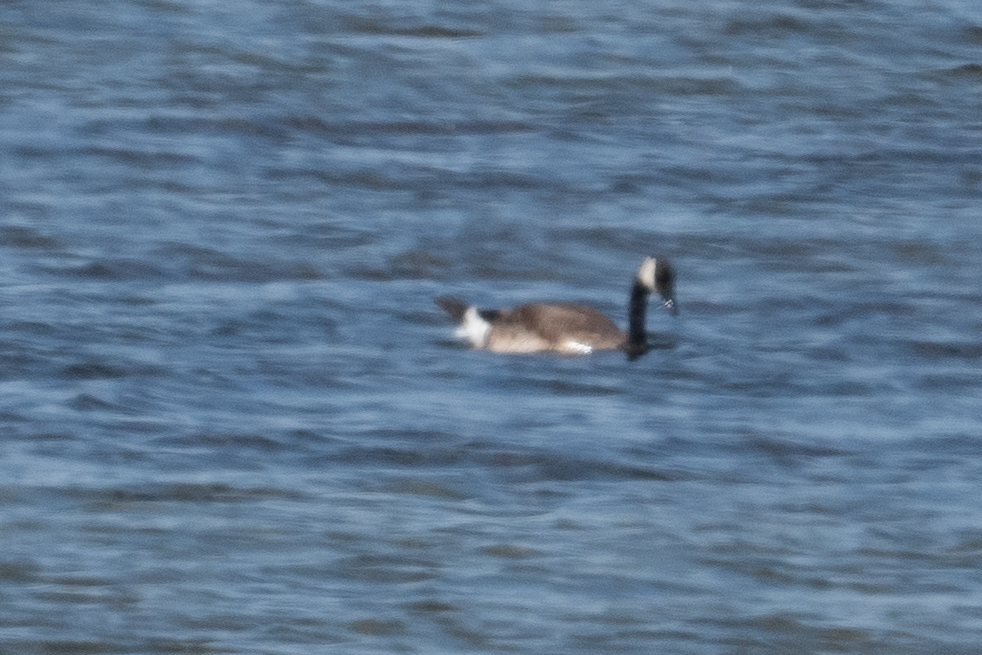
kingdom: Animalia
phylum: Chordata
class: Aves
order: Anseriformes
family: Anatidae
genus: Branta
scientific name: Branta canadensis
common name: Canada goose
